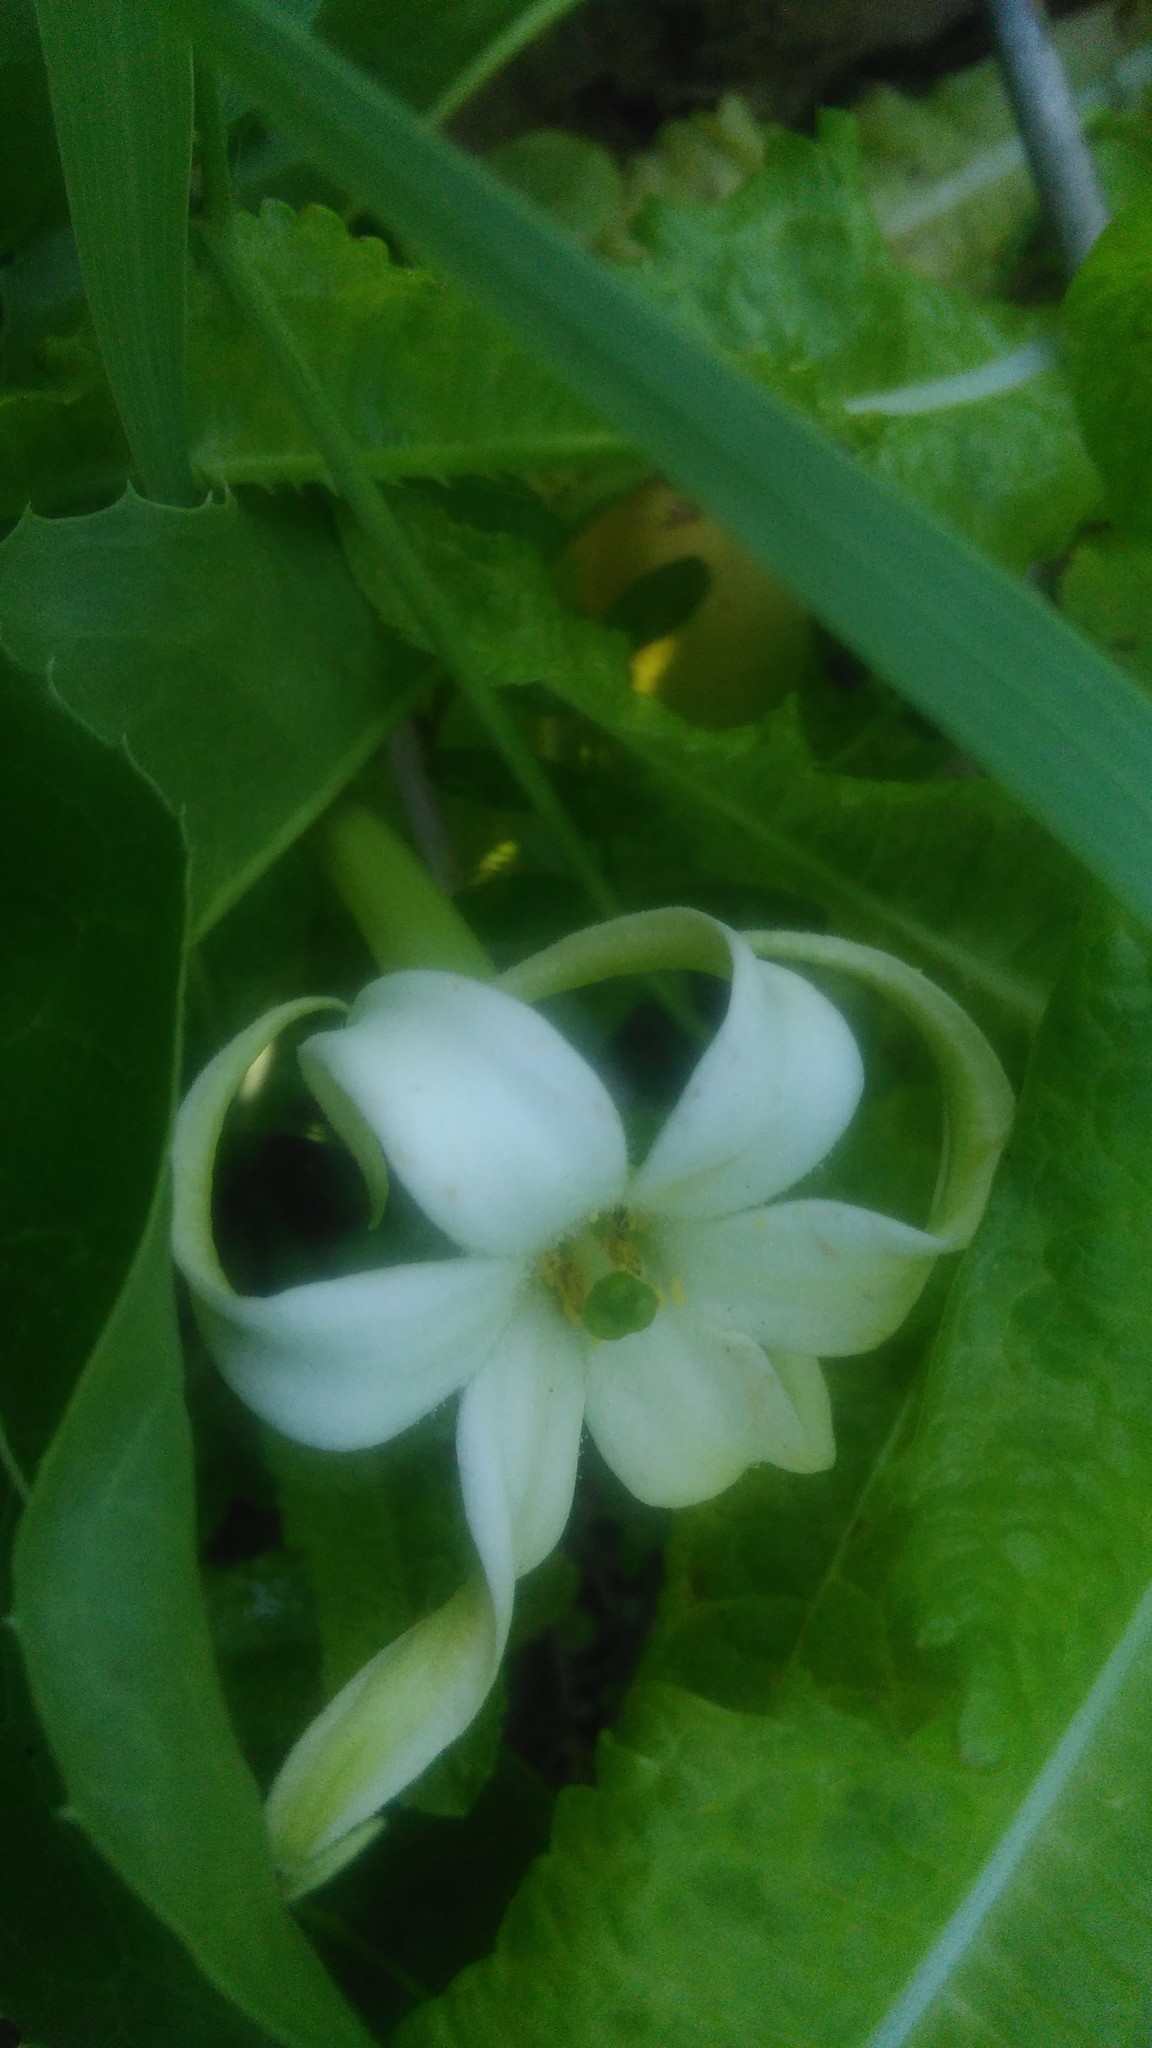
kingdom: Plantae
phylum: Tracheophyta
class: Magnoliopsida
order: Solanales
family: Solanaceae
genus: Jaborosa
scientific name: Jaborosa integrifolia
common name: Springblossom
